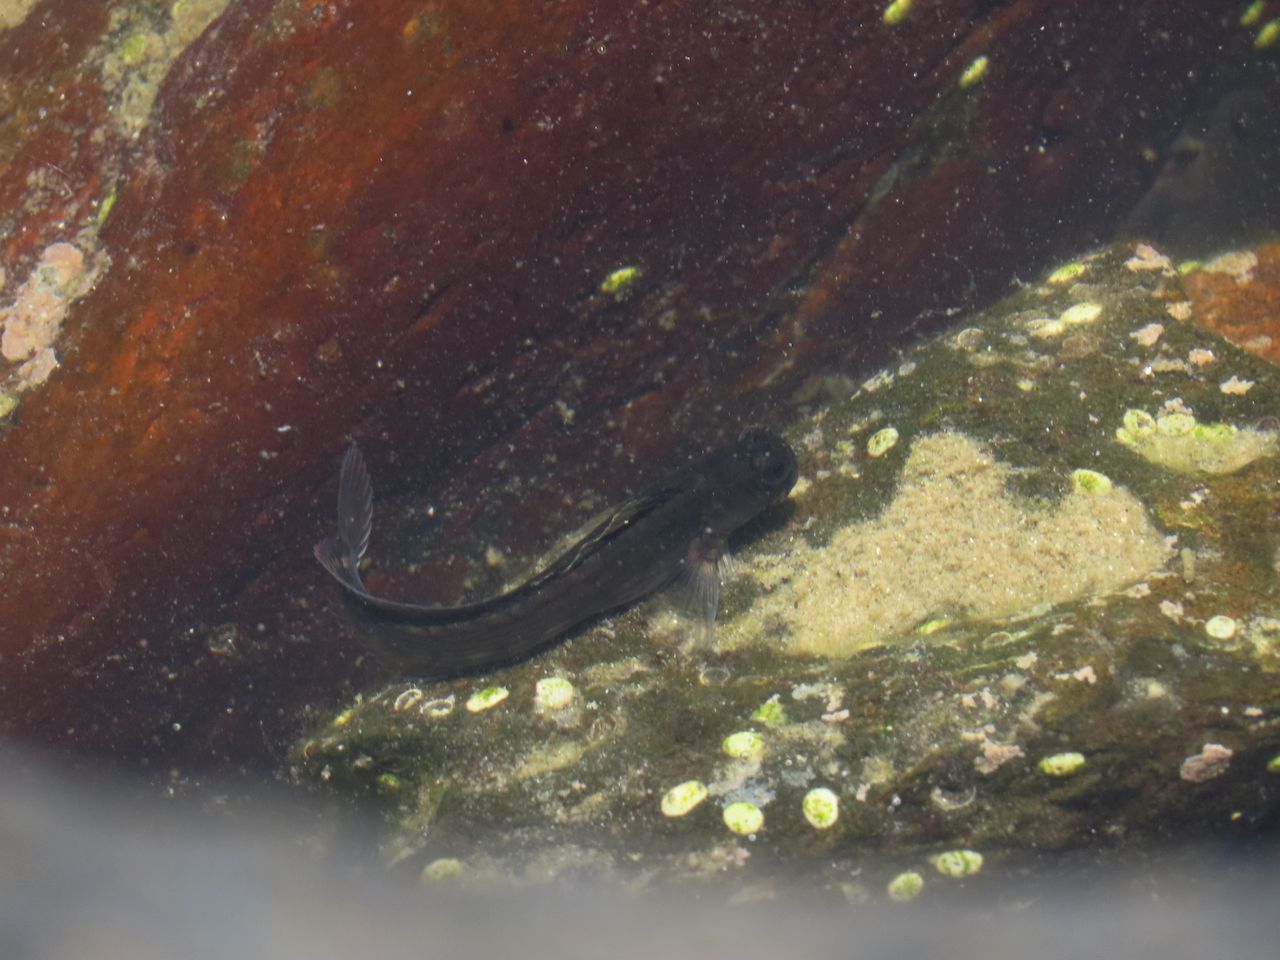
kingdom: Animalia
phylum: Chordata
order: Perciformes
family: Blenniidae
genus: Istiblennius
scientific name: Istiblennius lineatus
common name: Black-lined blenny
